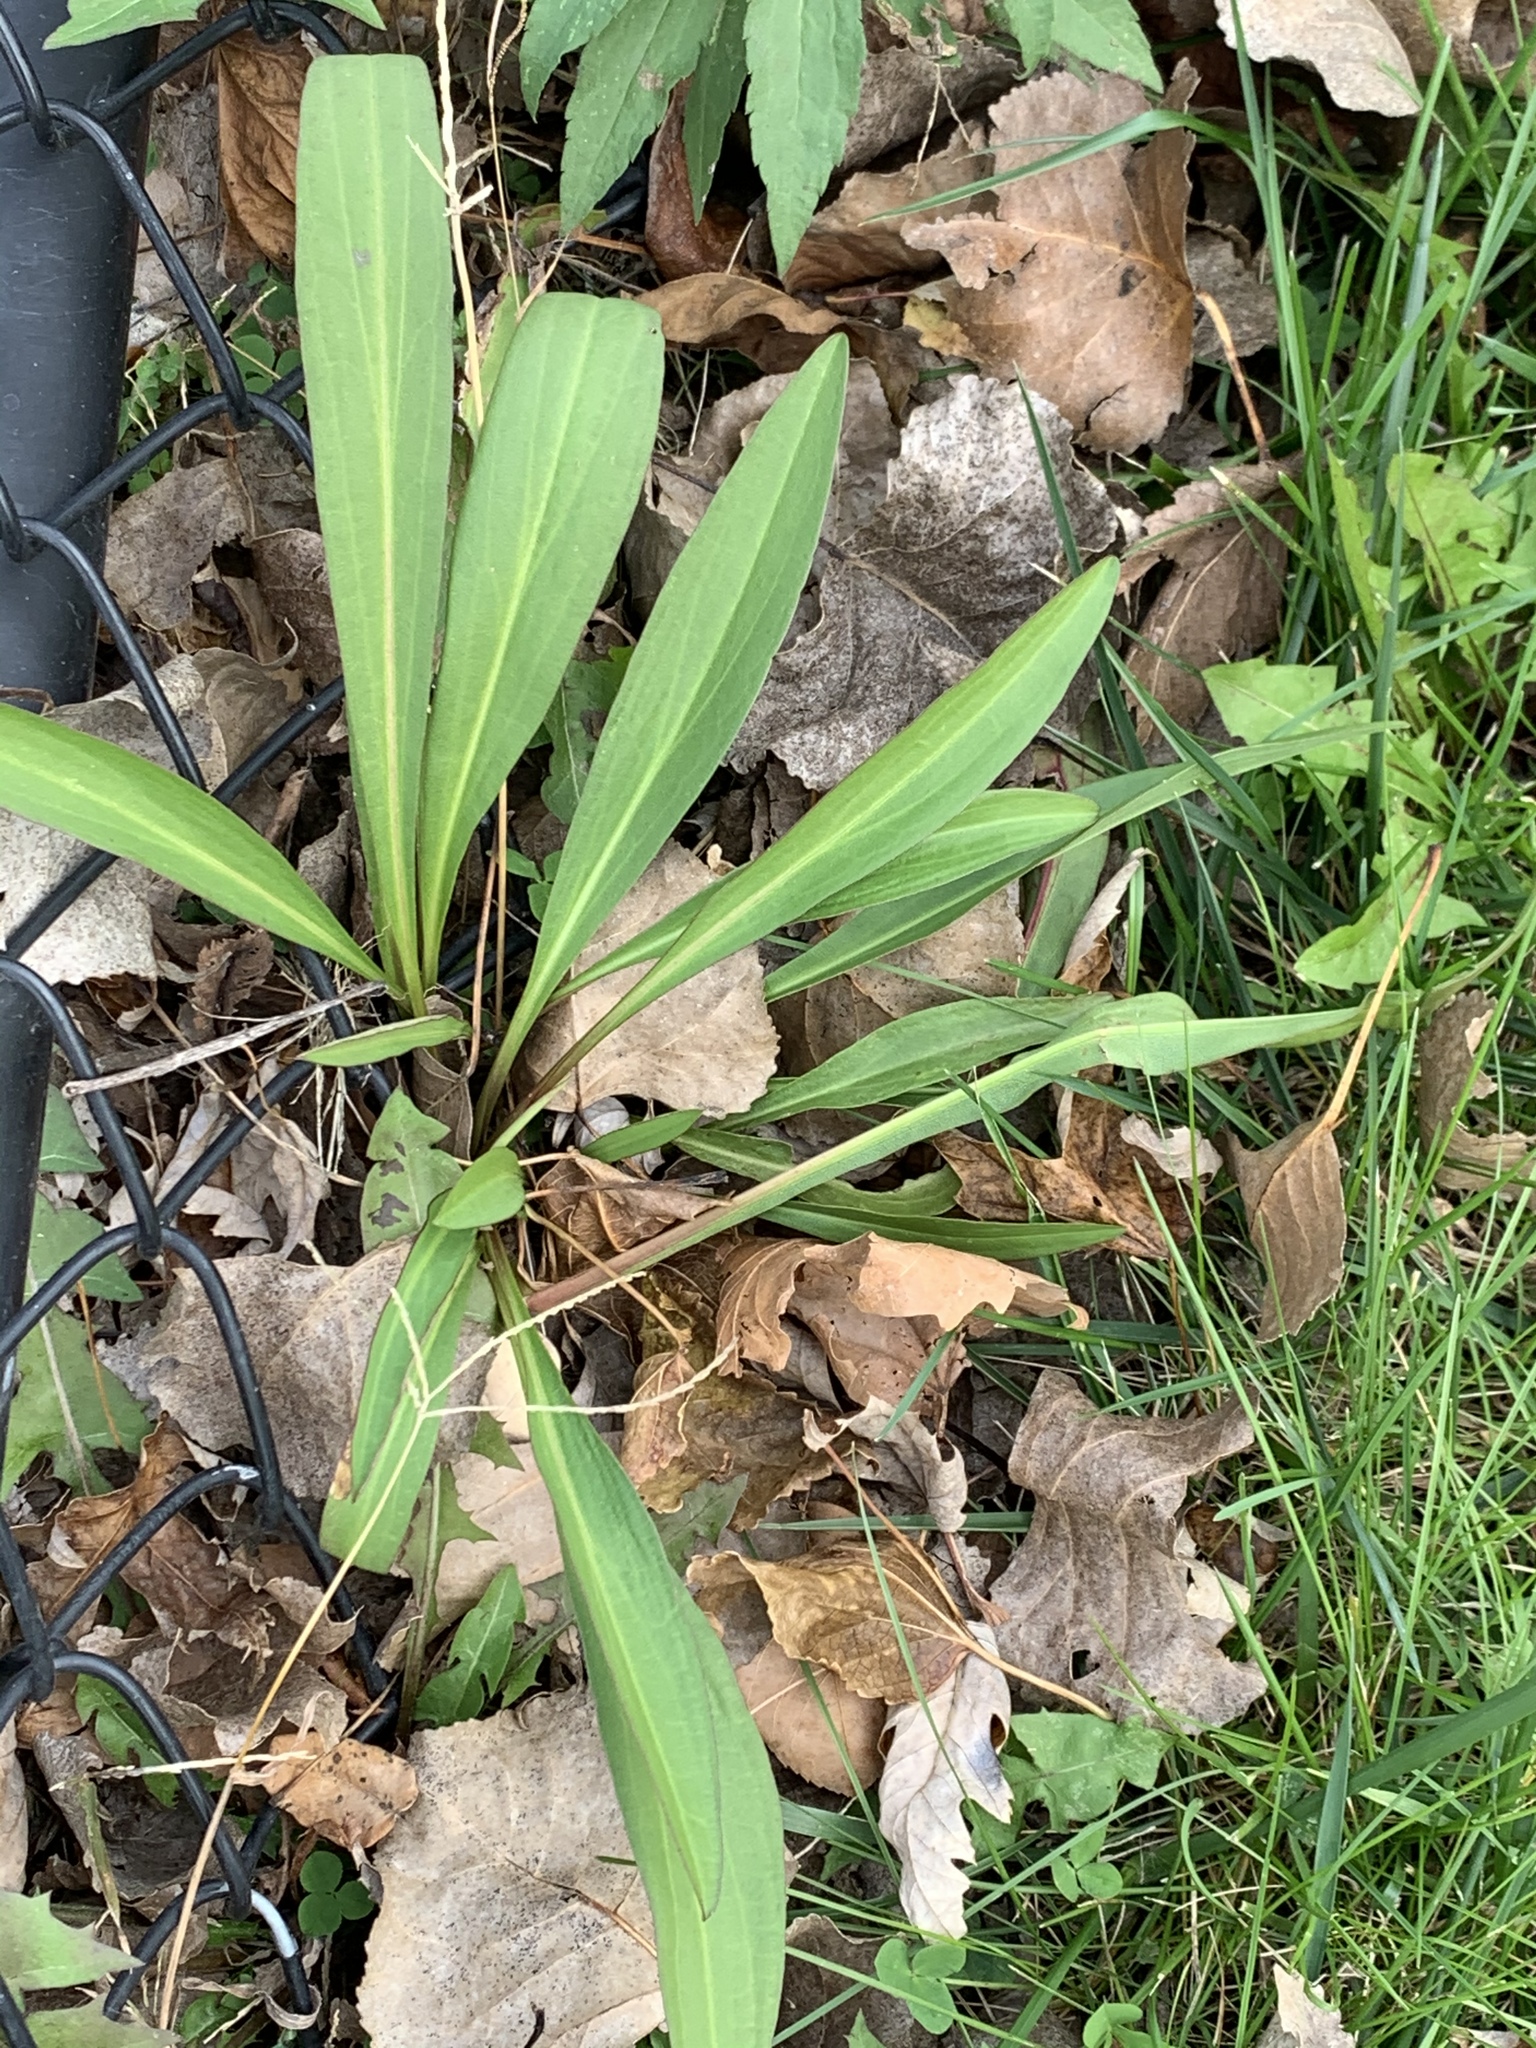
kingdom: Plantae
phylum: Tracheophyta
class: Magnoliopsida
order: Asterales
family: Asteraceae
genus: Solidago
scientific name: Solidago sempervirens
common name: Salt-marsh goldenrod
